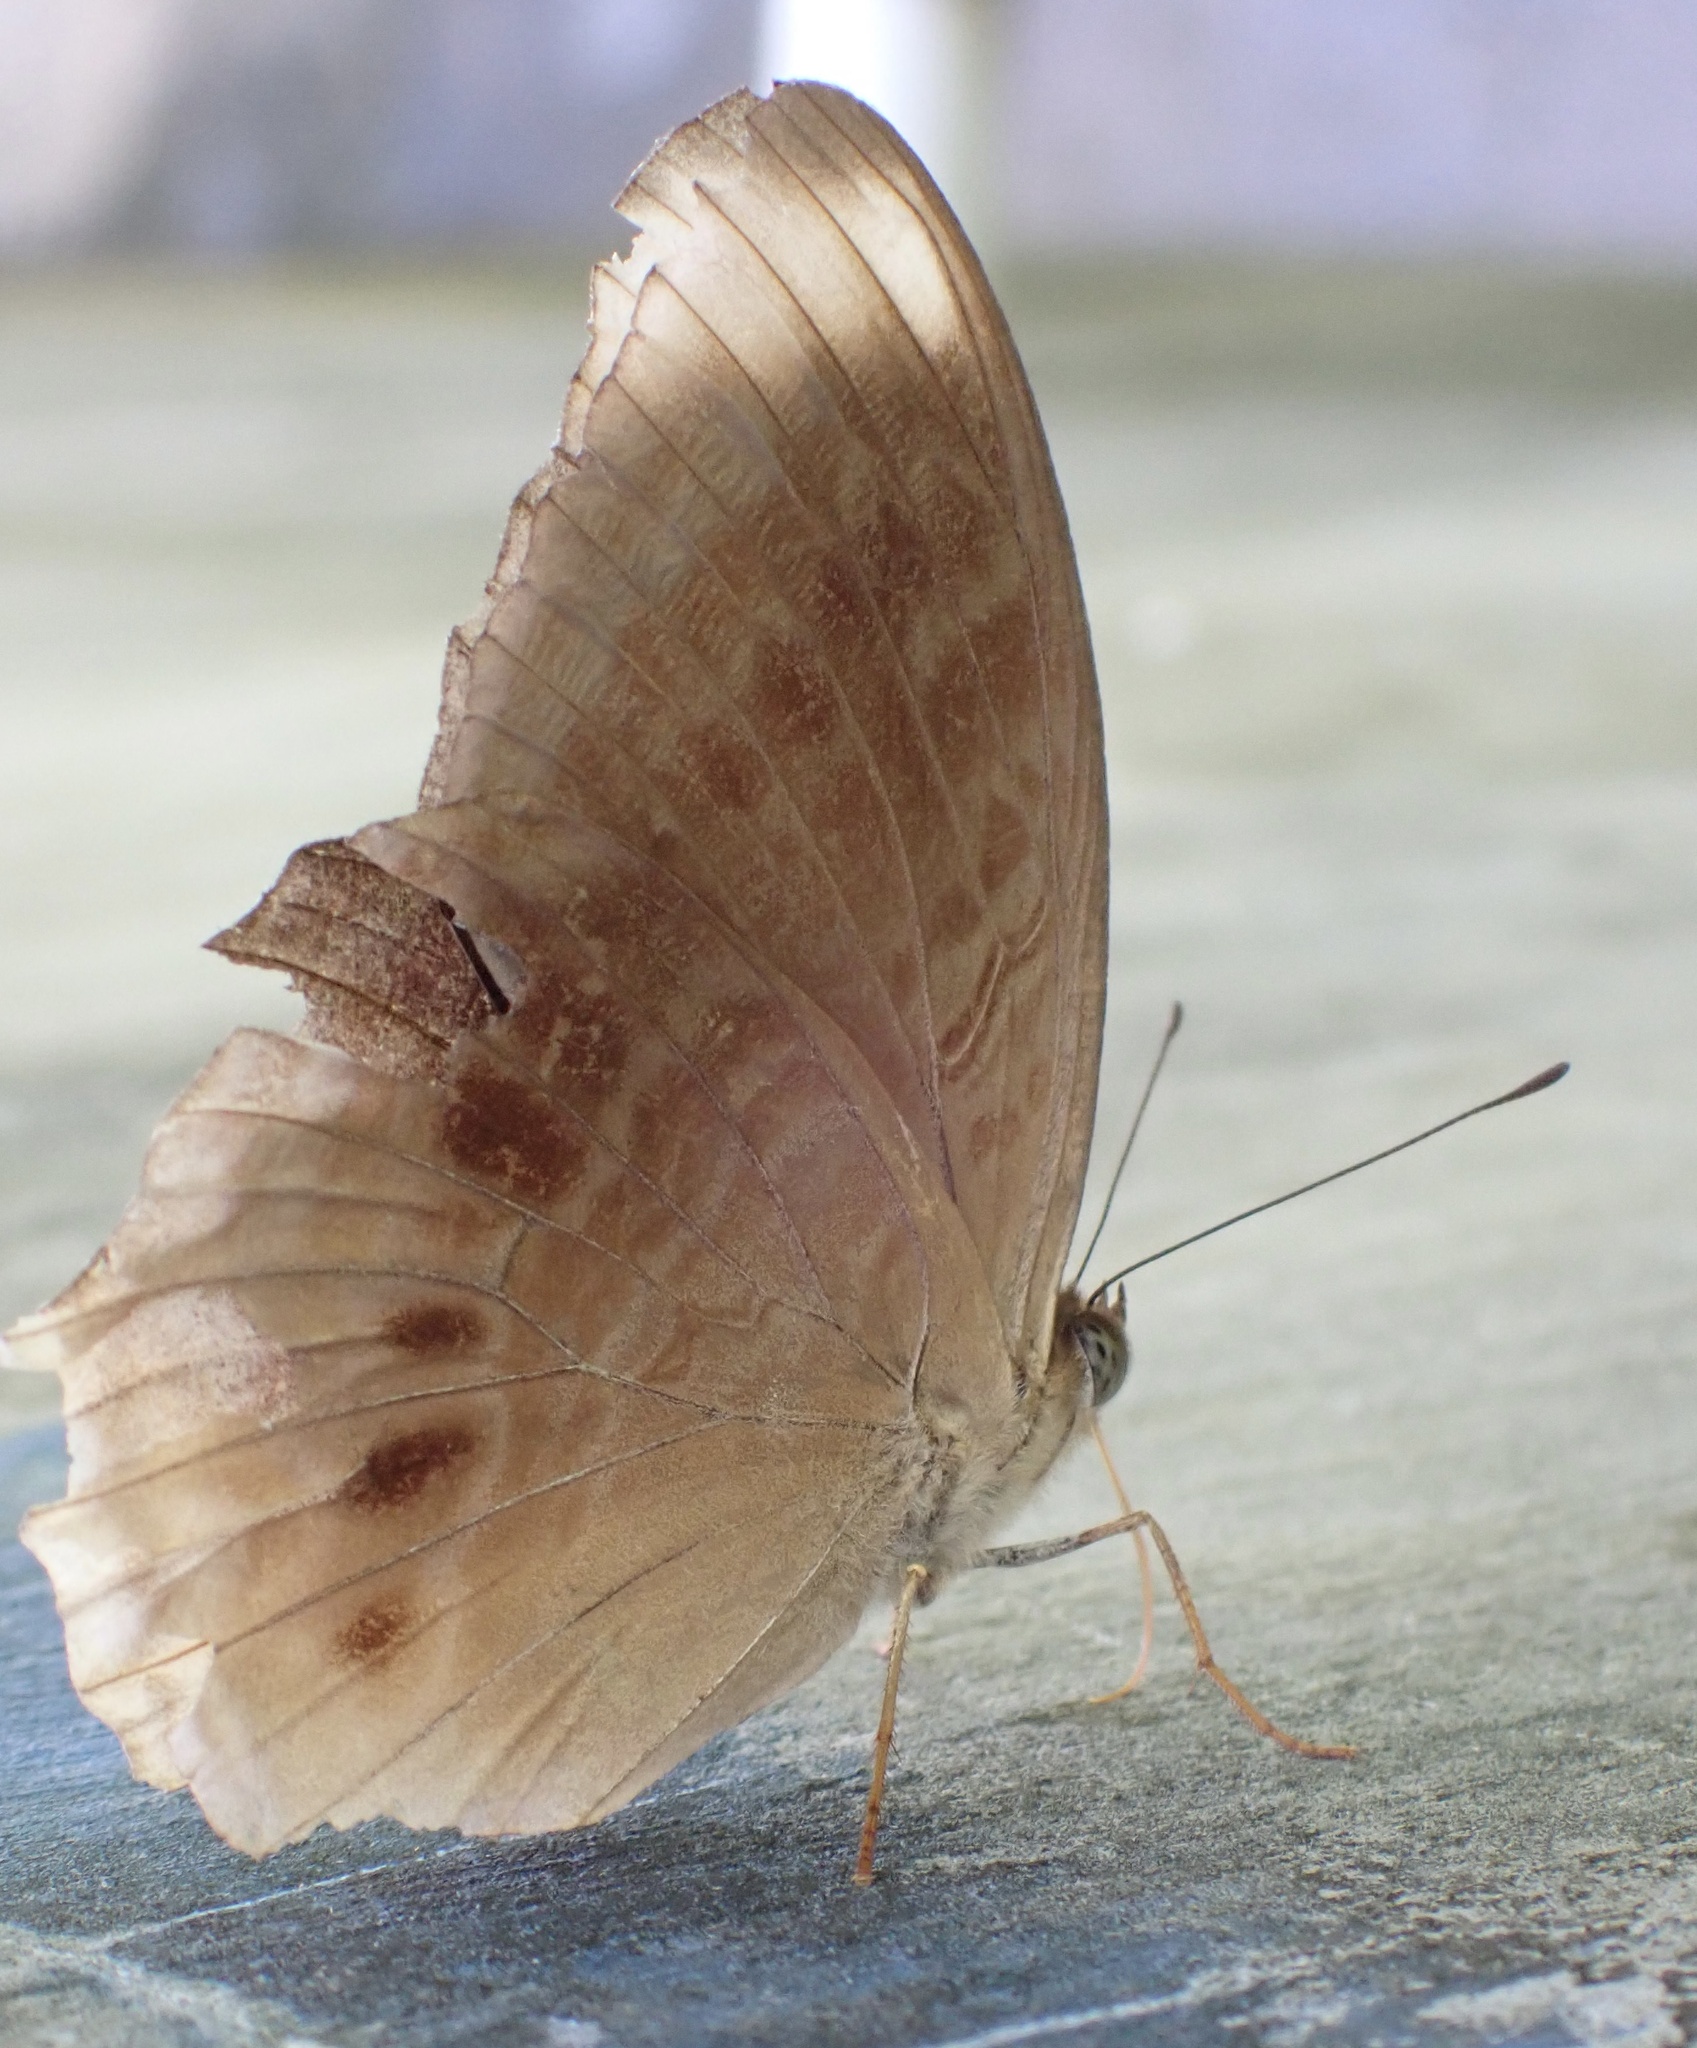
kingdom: Animalia
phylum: Arthropoda
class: Insecta
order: Lepidoptera
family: Nymphalidae
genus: Terinos
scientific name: Terinos tethys
